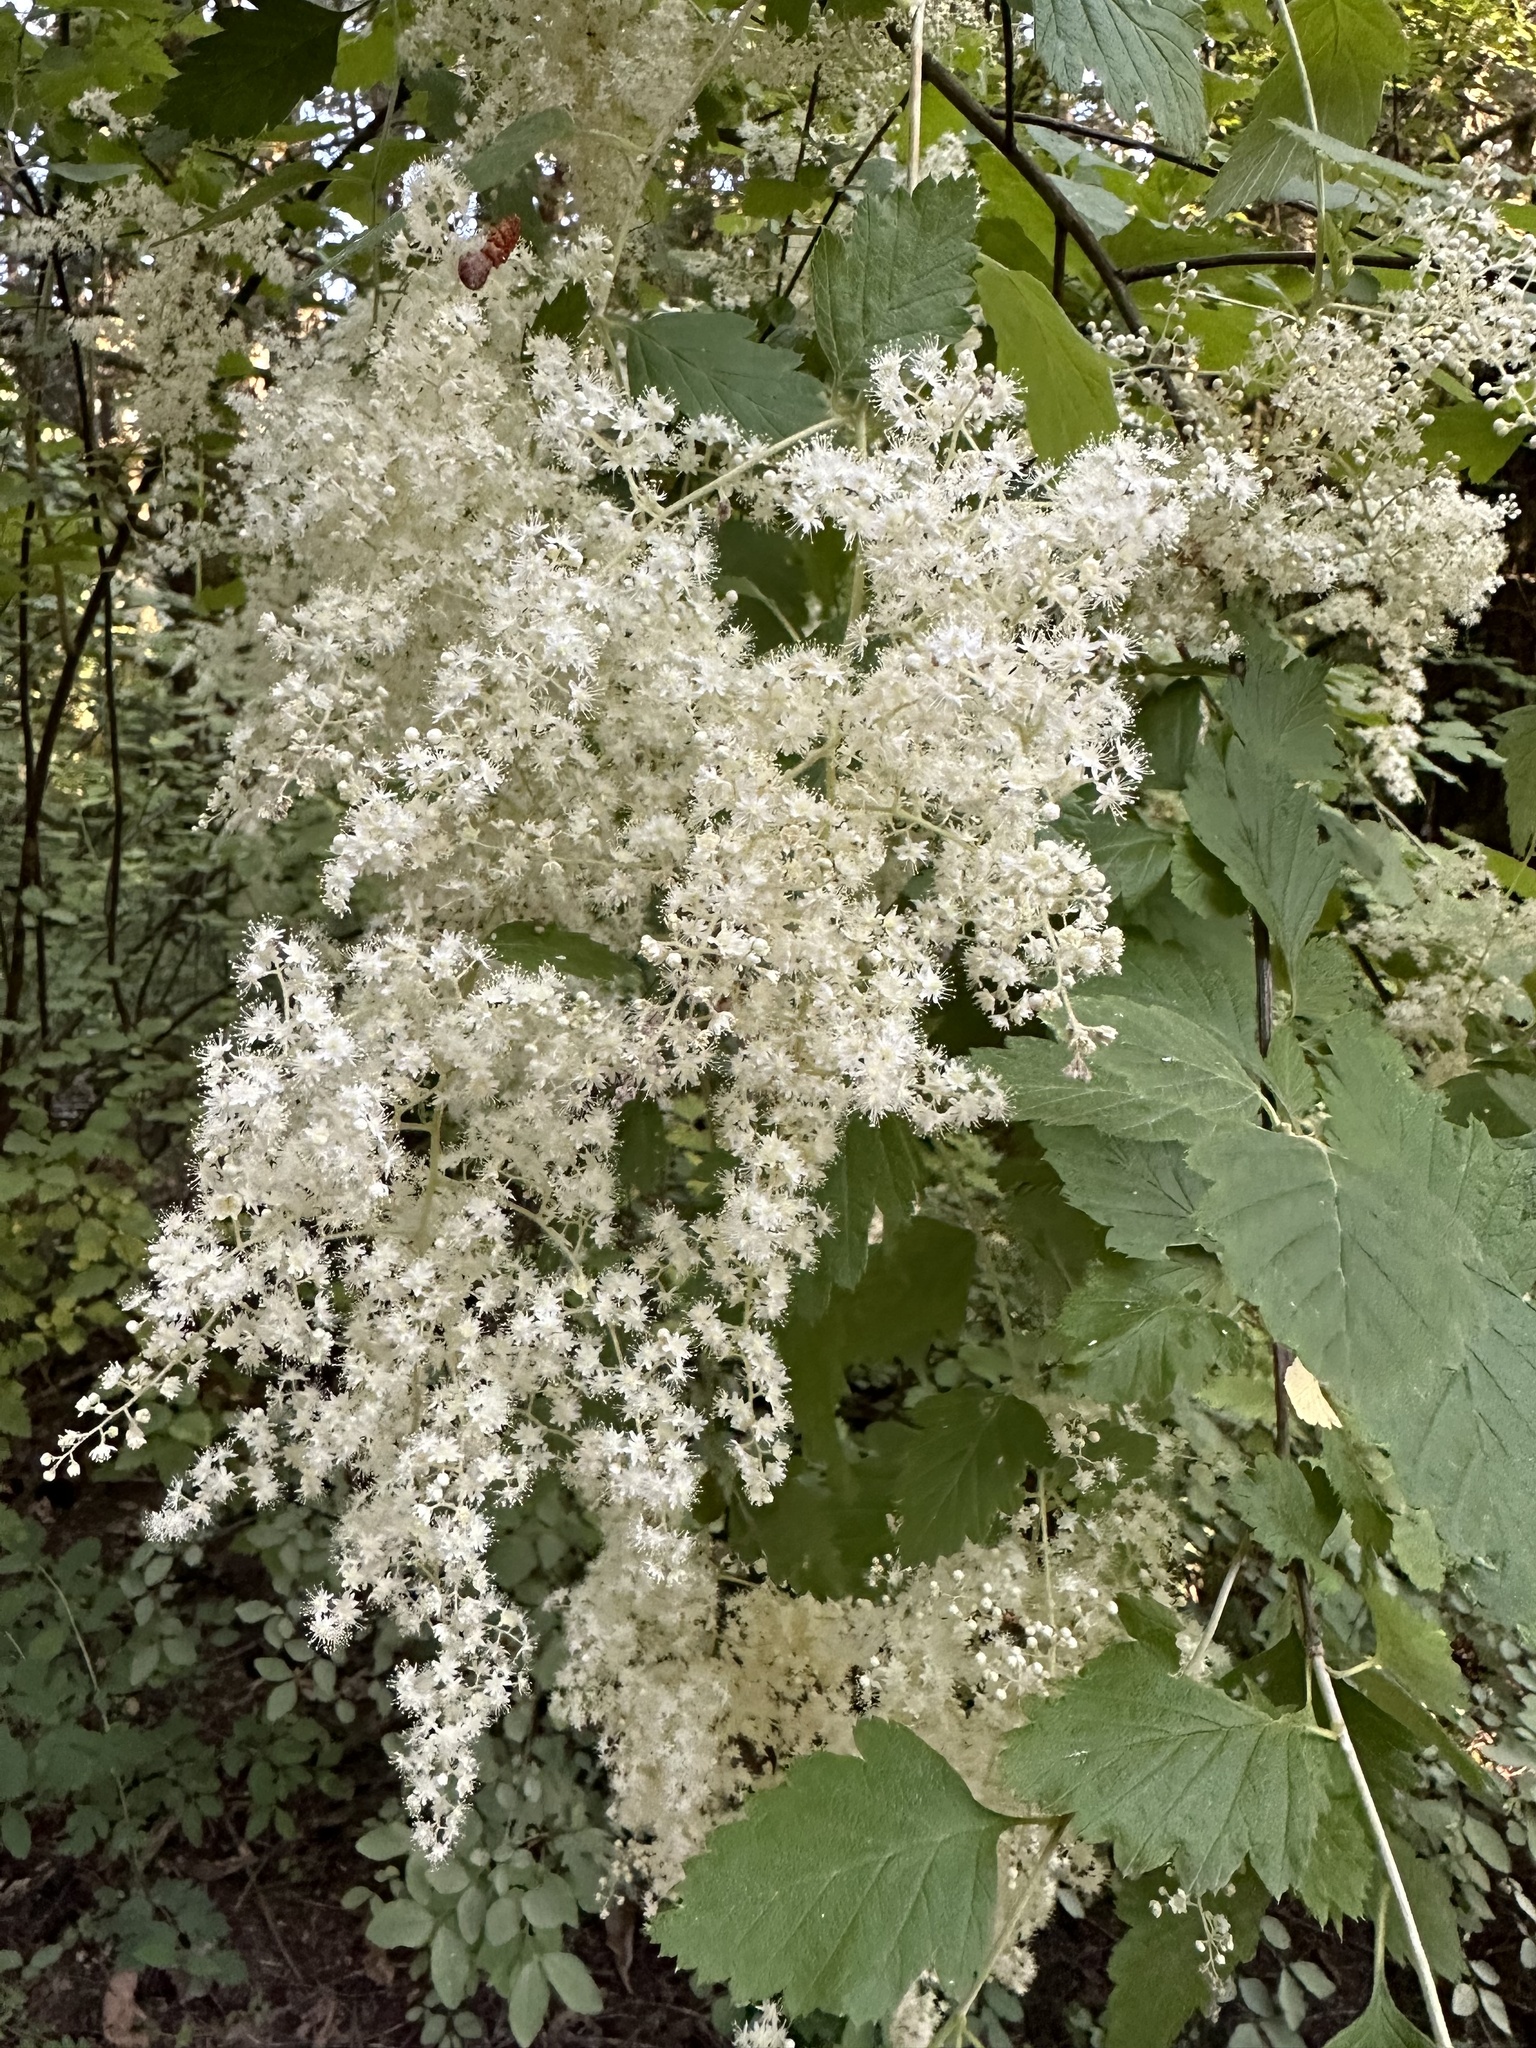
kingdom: Plantae
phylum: Tracheophyta
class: Magnoliopsida
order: Rosales
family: Rosaceae
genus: Holodiscus
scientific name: Holodiscus discolor
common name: Oceanspray
